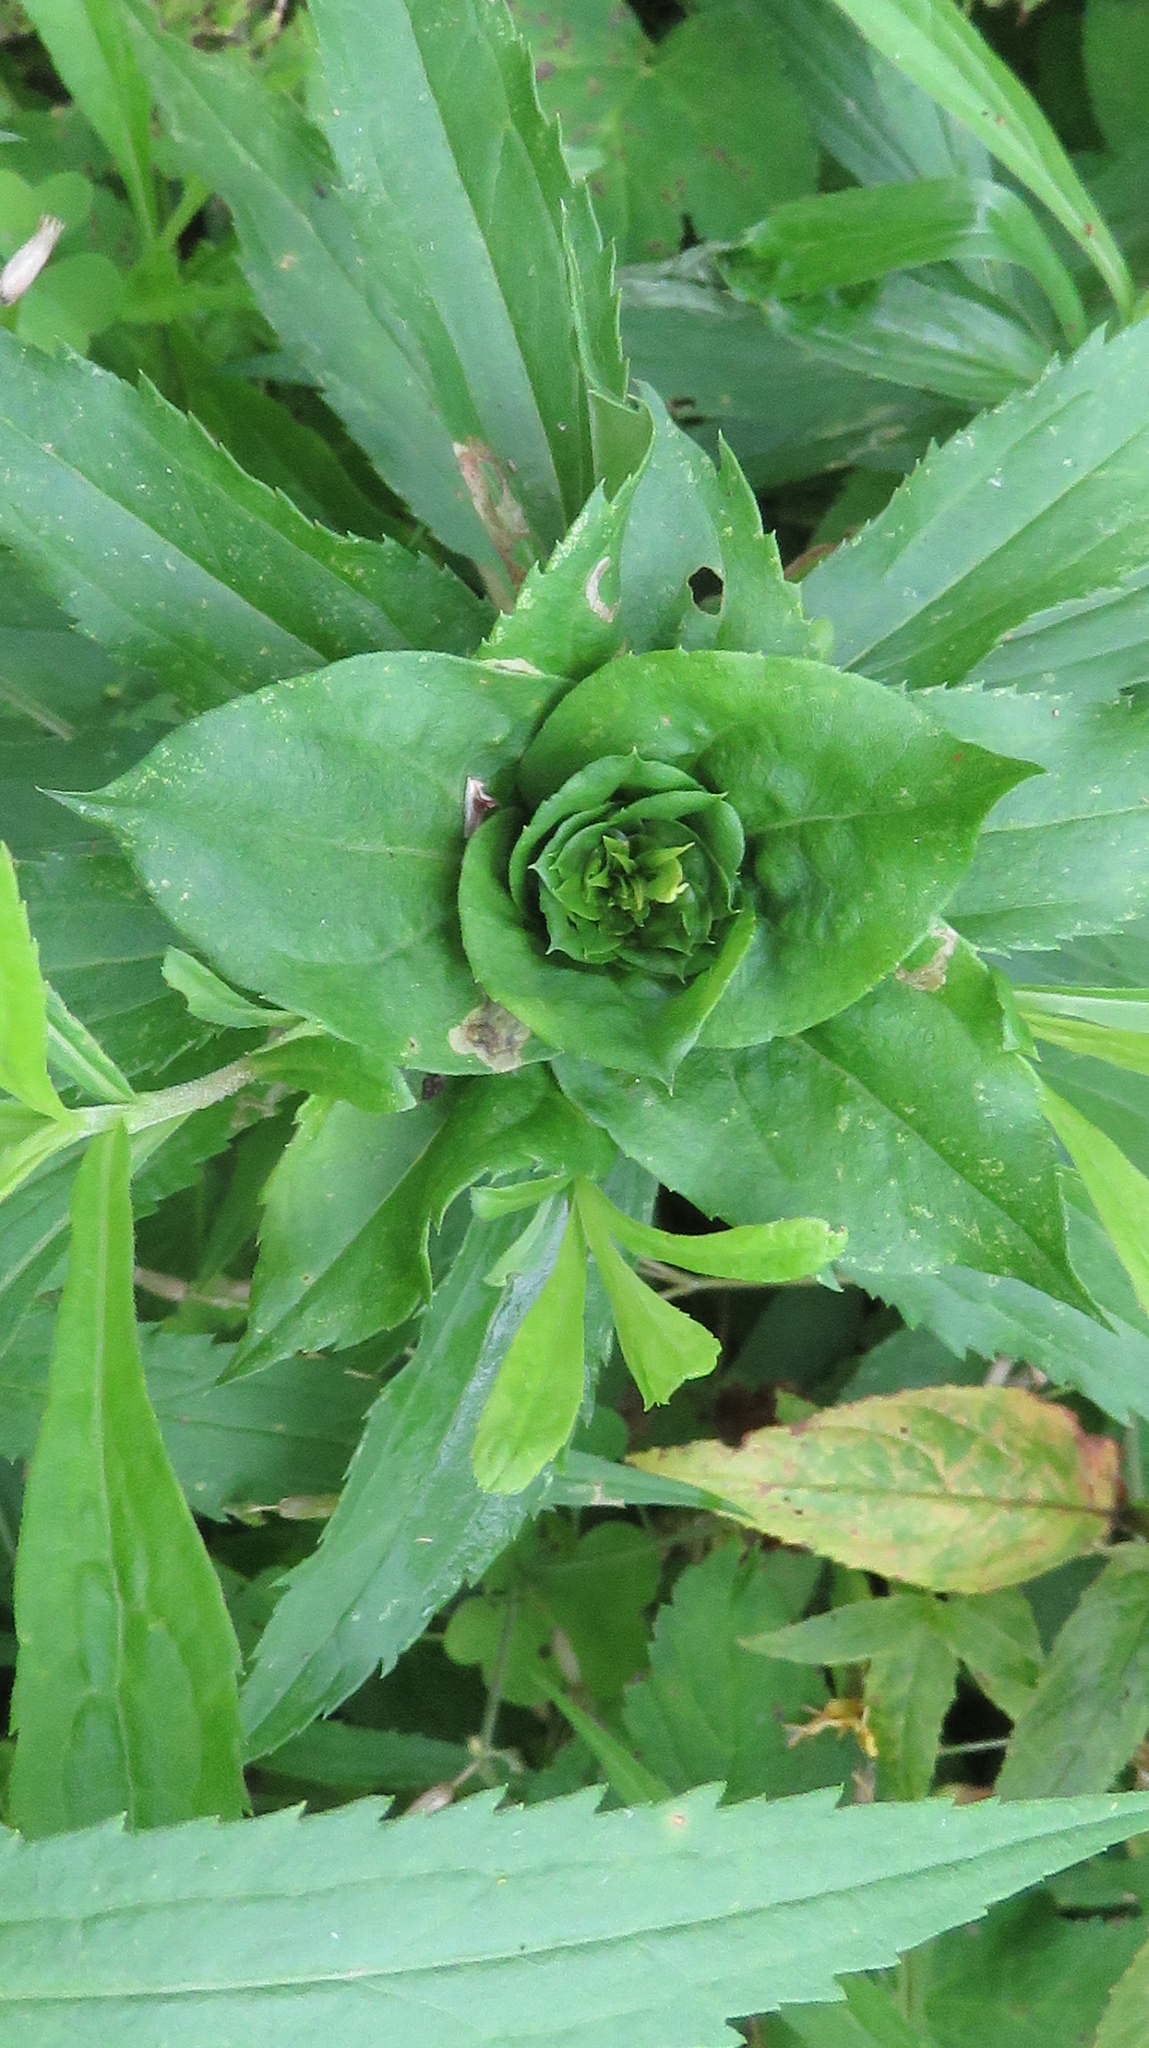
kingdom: Animalia
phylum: Arthropoda
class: Insecta
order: Diptera
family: Cecidomyiidae
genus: Rhopalomyia
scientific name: Rhopalomyia capitata
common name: Giant goldenrod bunch gall midge
